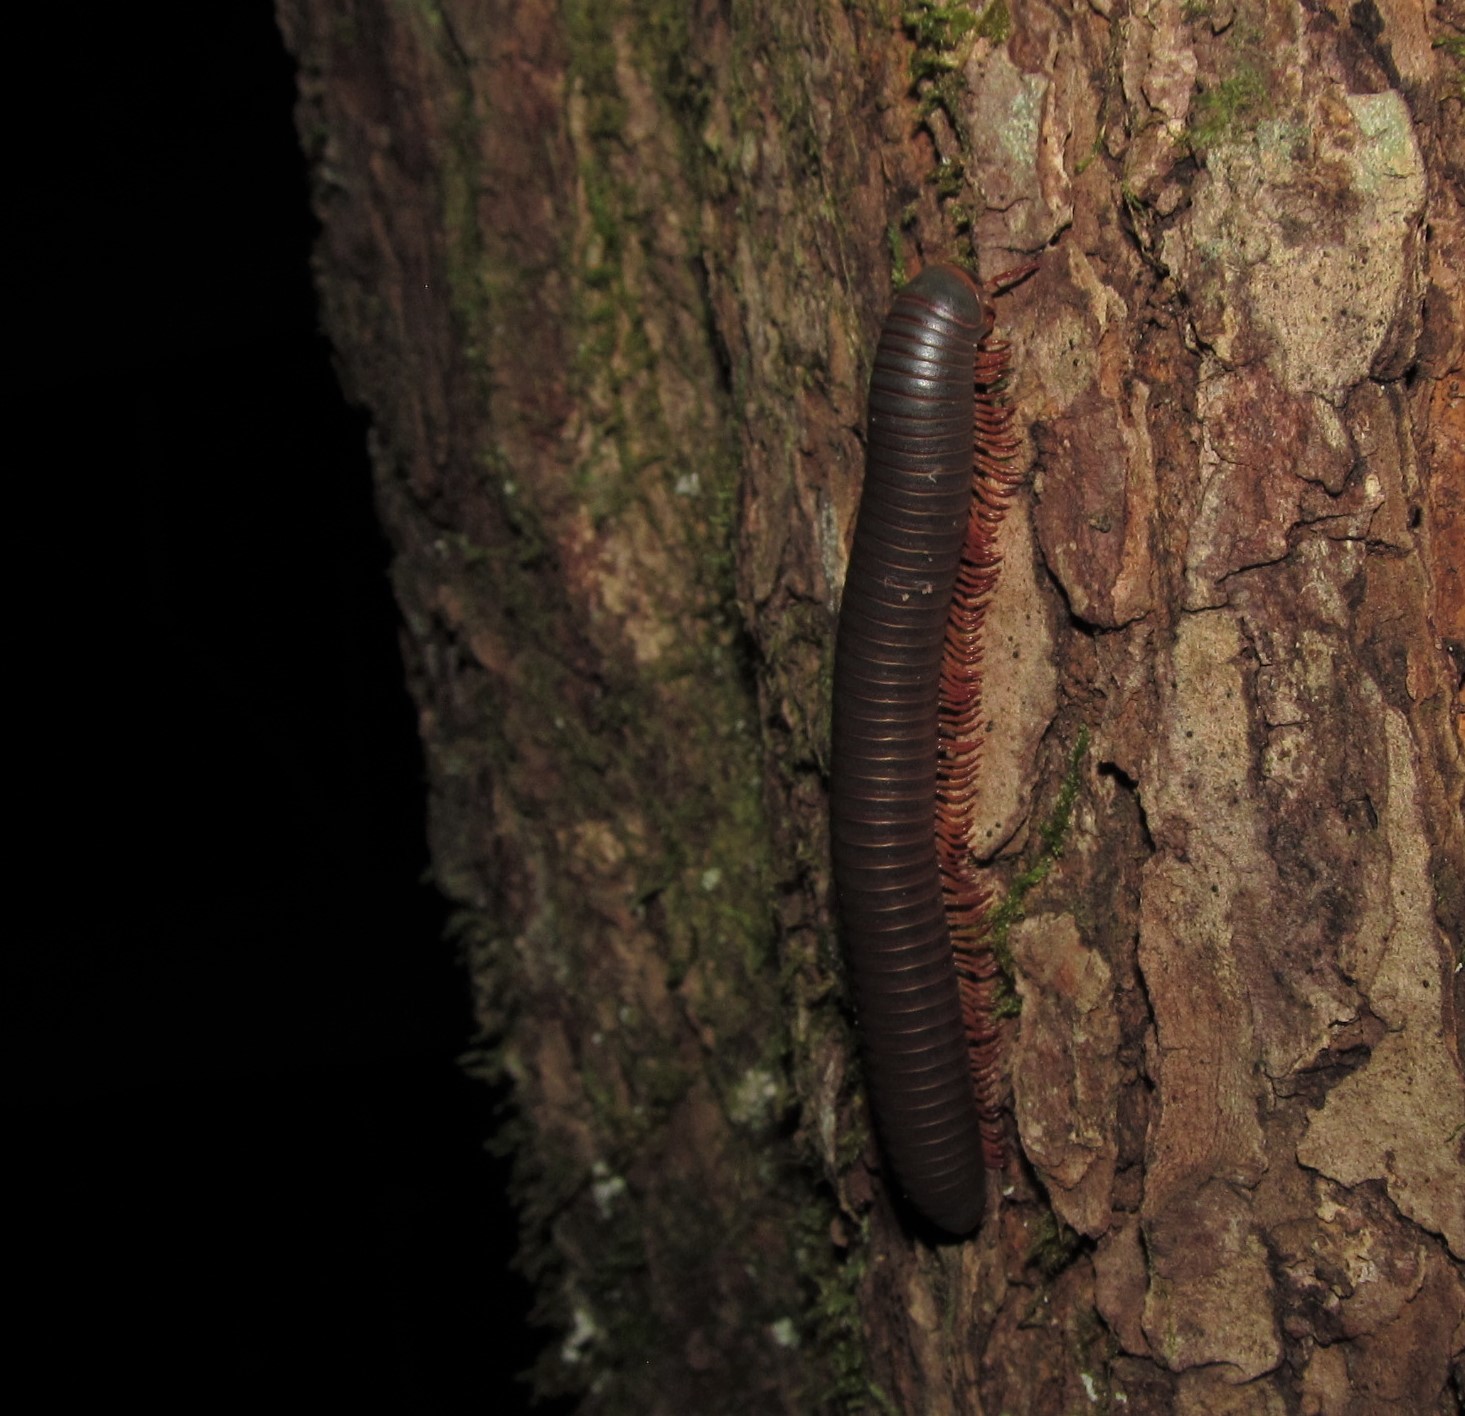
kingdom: Animalia
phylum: Arthropoda
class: Diplopoda
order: Spirobolida
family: Spirobolidae
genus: Narceus
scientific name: Narceus
